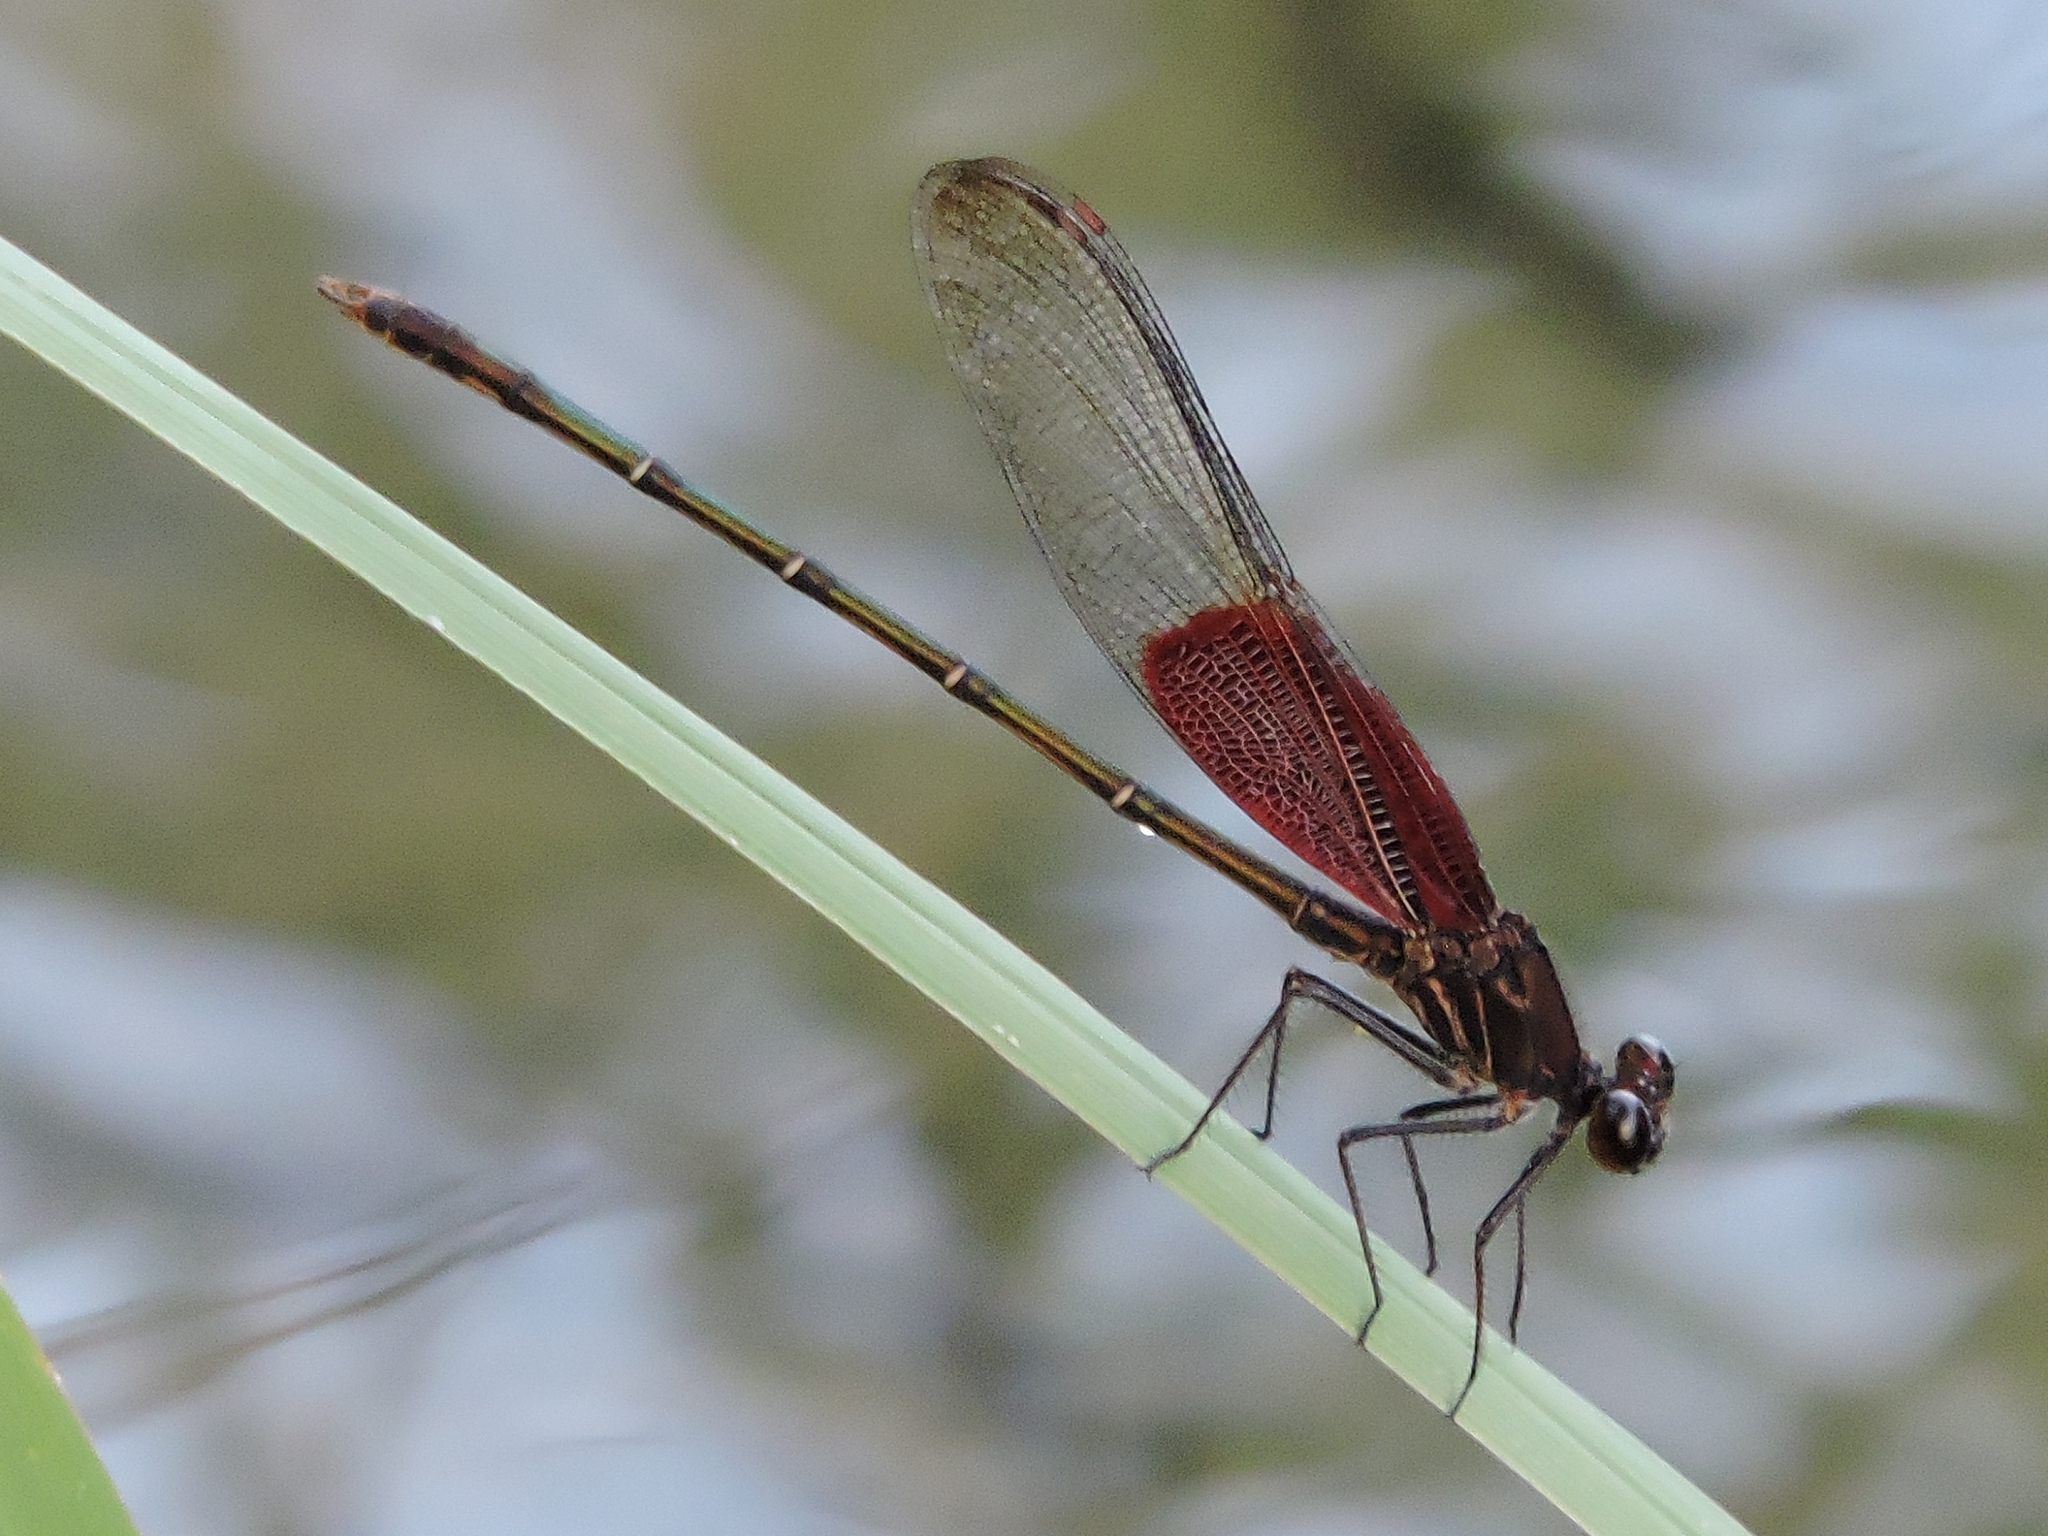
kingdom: Animalia
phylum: Arthropoda
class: Insecta
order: Odonata
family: Calopterygidae
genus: Hetaerina
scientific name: Hetaerina americana
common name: American rubyspot
